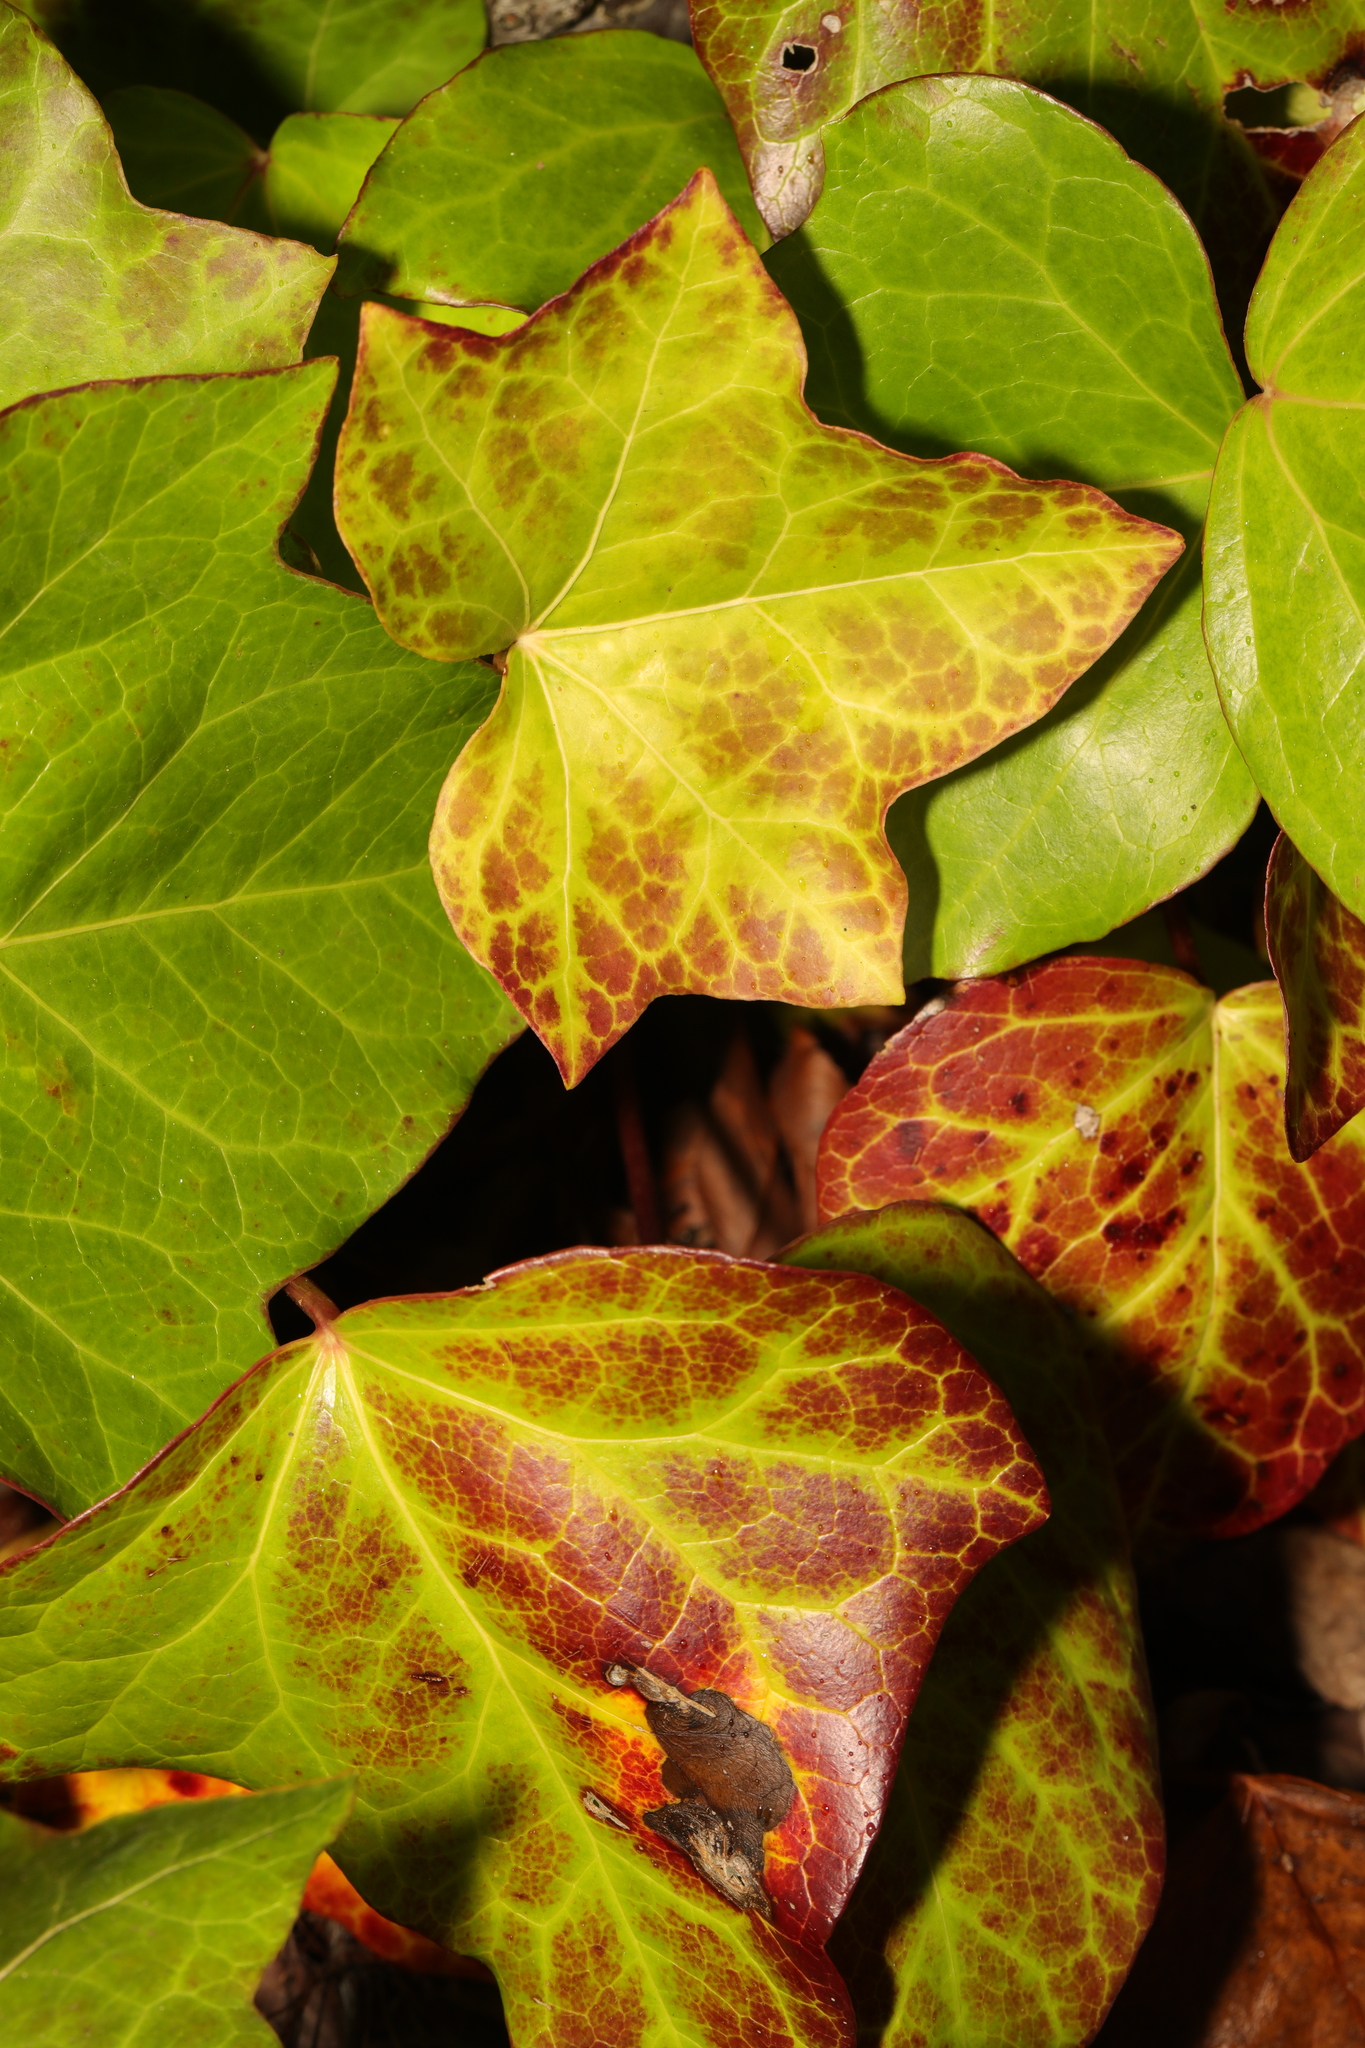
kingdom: Plantae
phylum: Tracheophyta
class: Magnoliopsida
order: Apiales
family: Araliaceae
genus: Hedera
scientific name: Hedera helix
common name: Ivy
